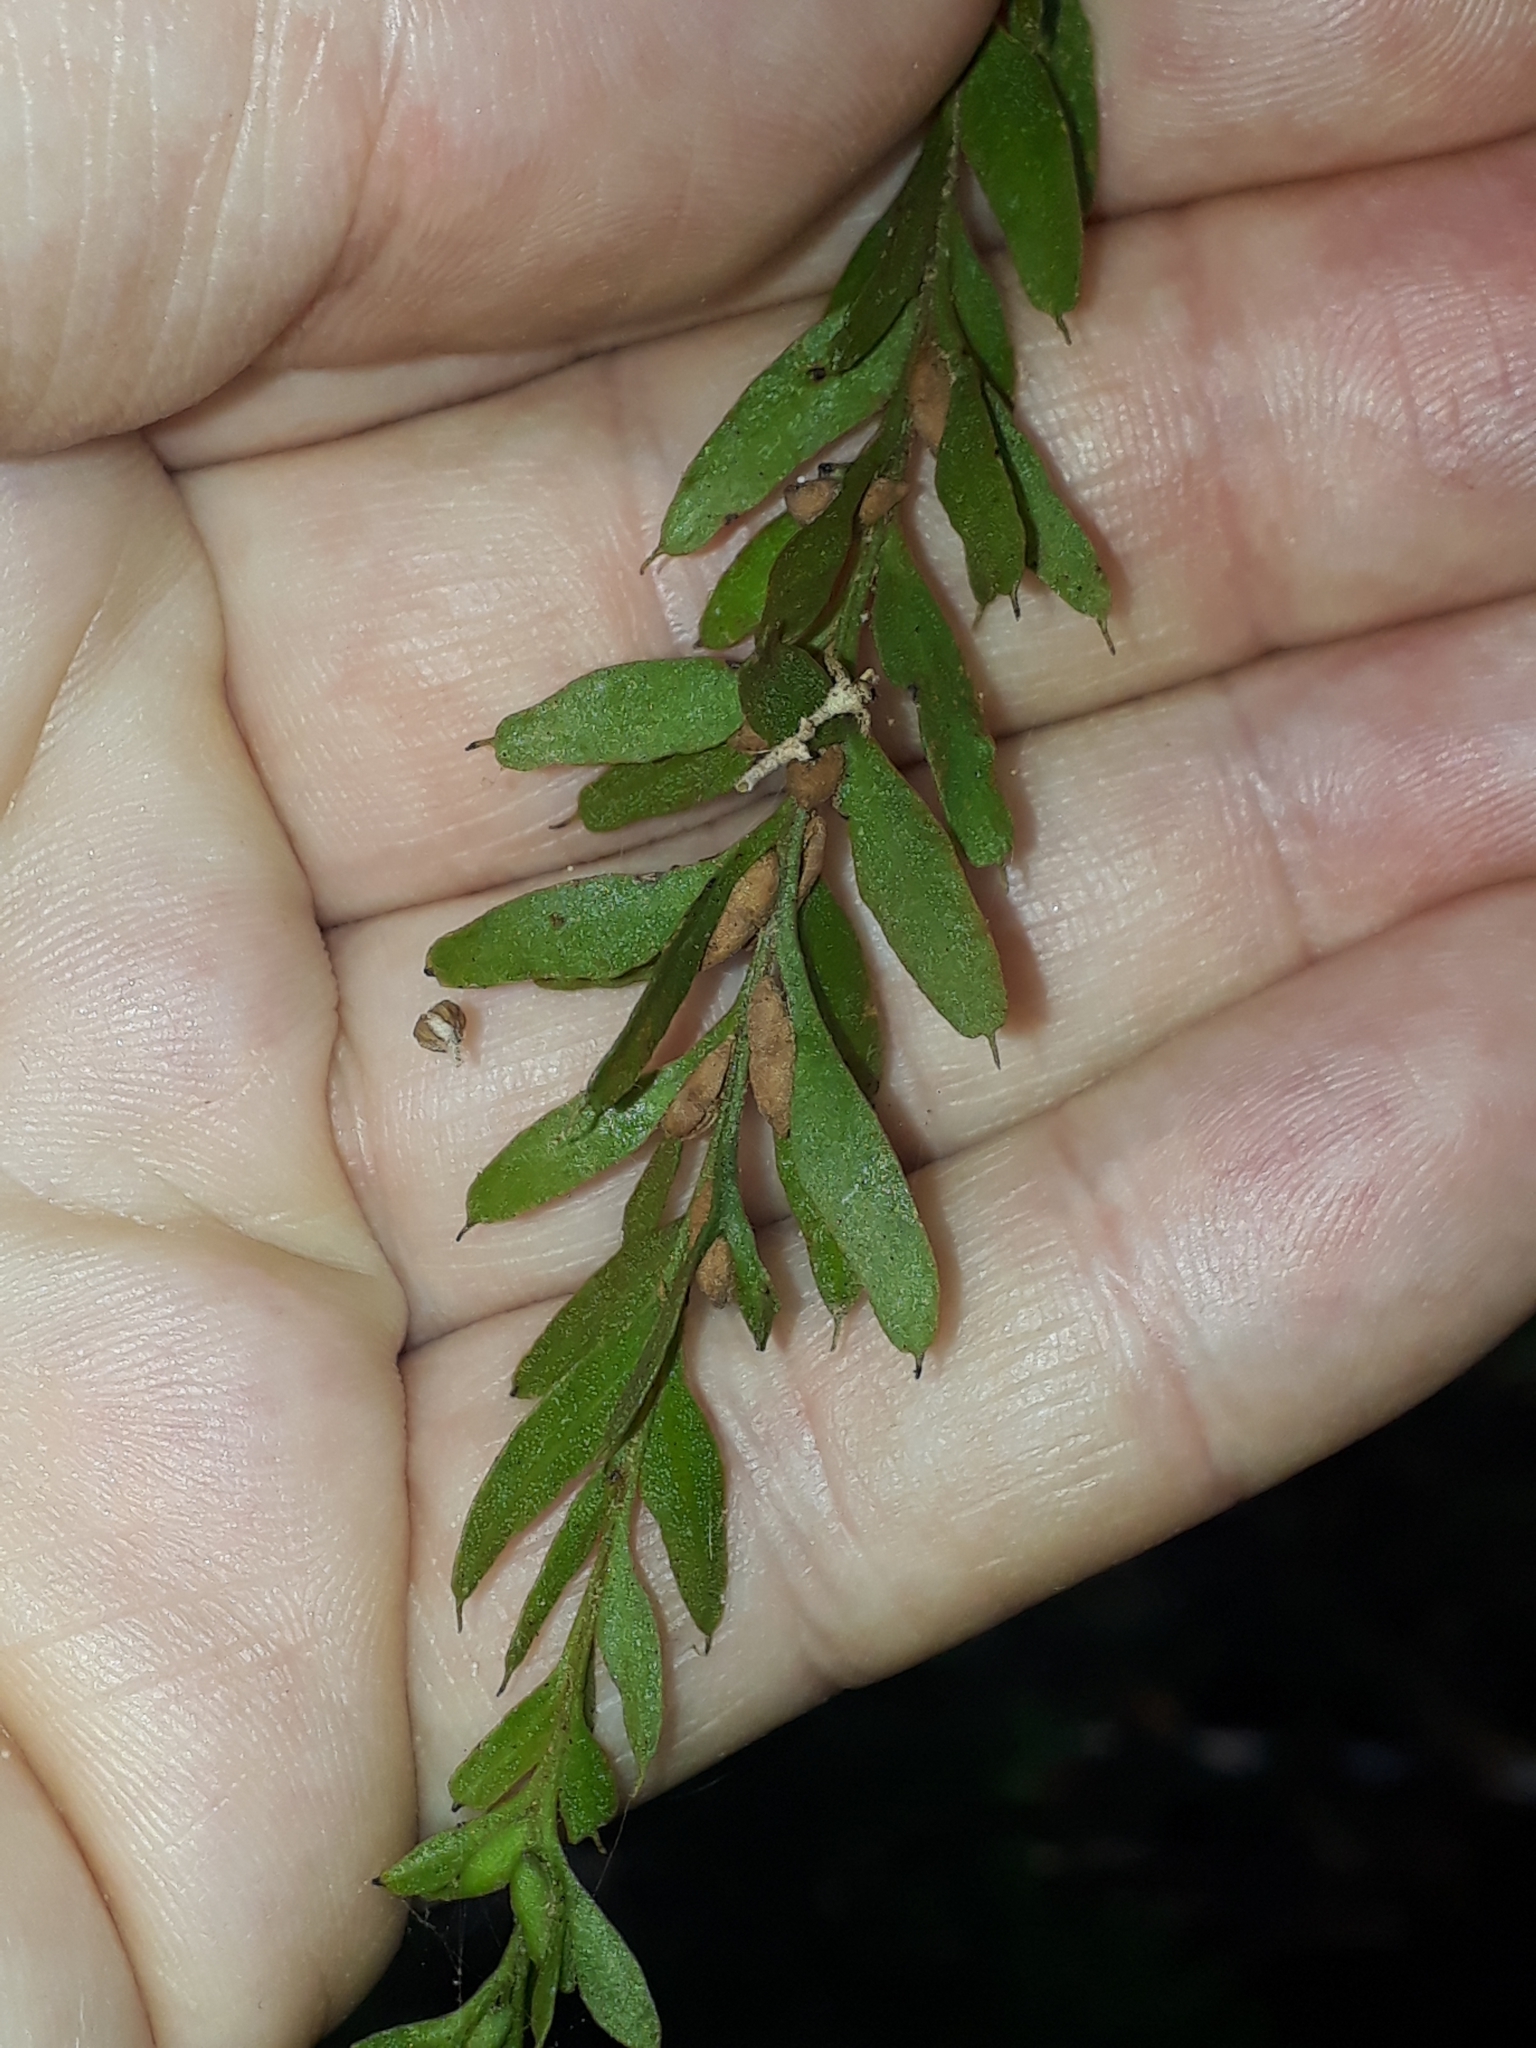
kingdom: Plantae
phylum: Tracheophyta
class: Polypodiopsida
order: Psilotales
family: Psilotaceae
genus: Tmesipteris
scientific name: Tmesipteris obliqua
